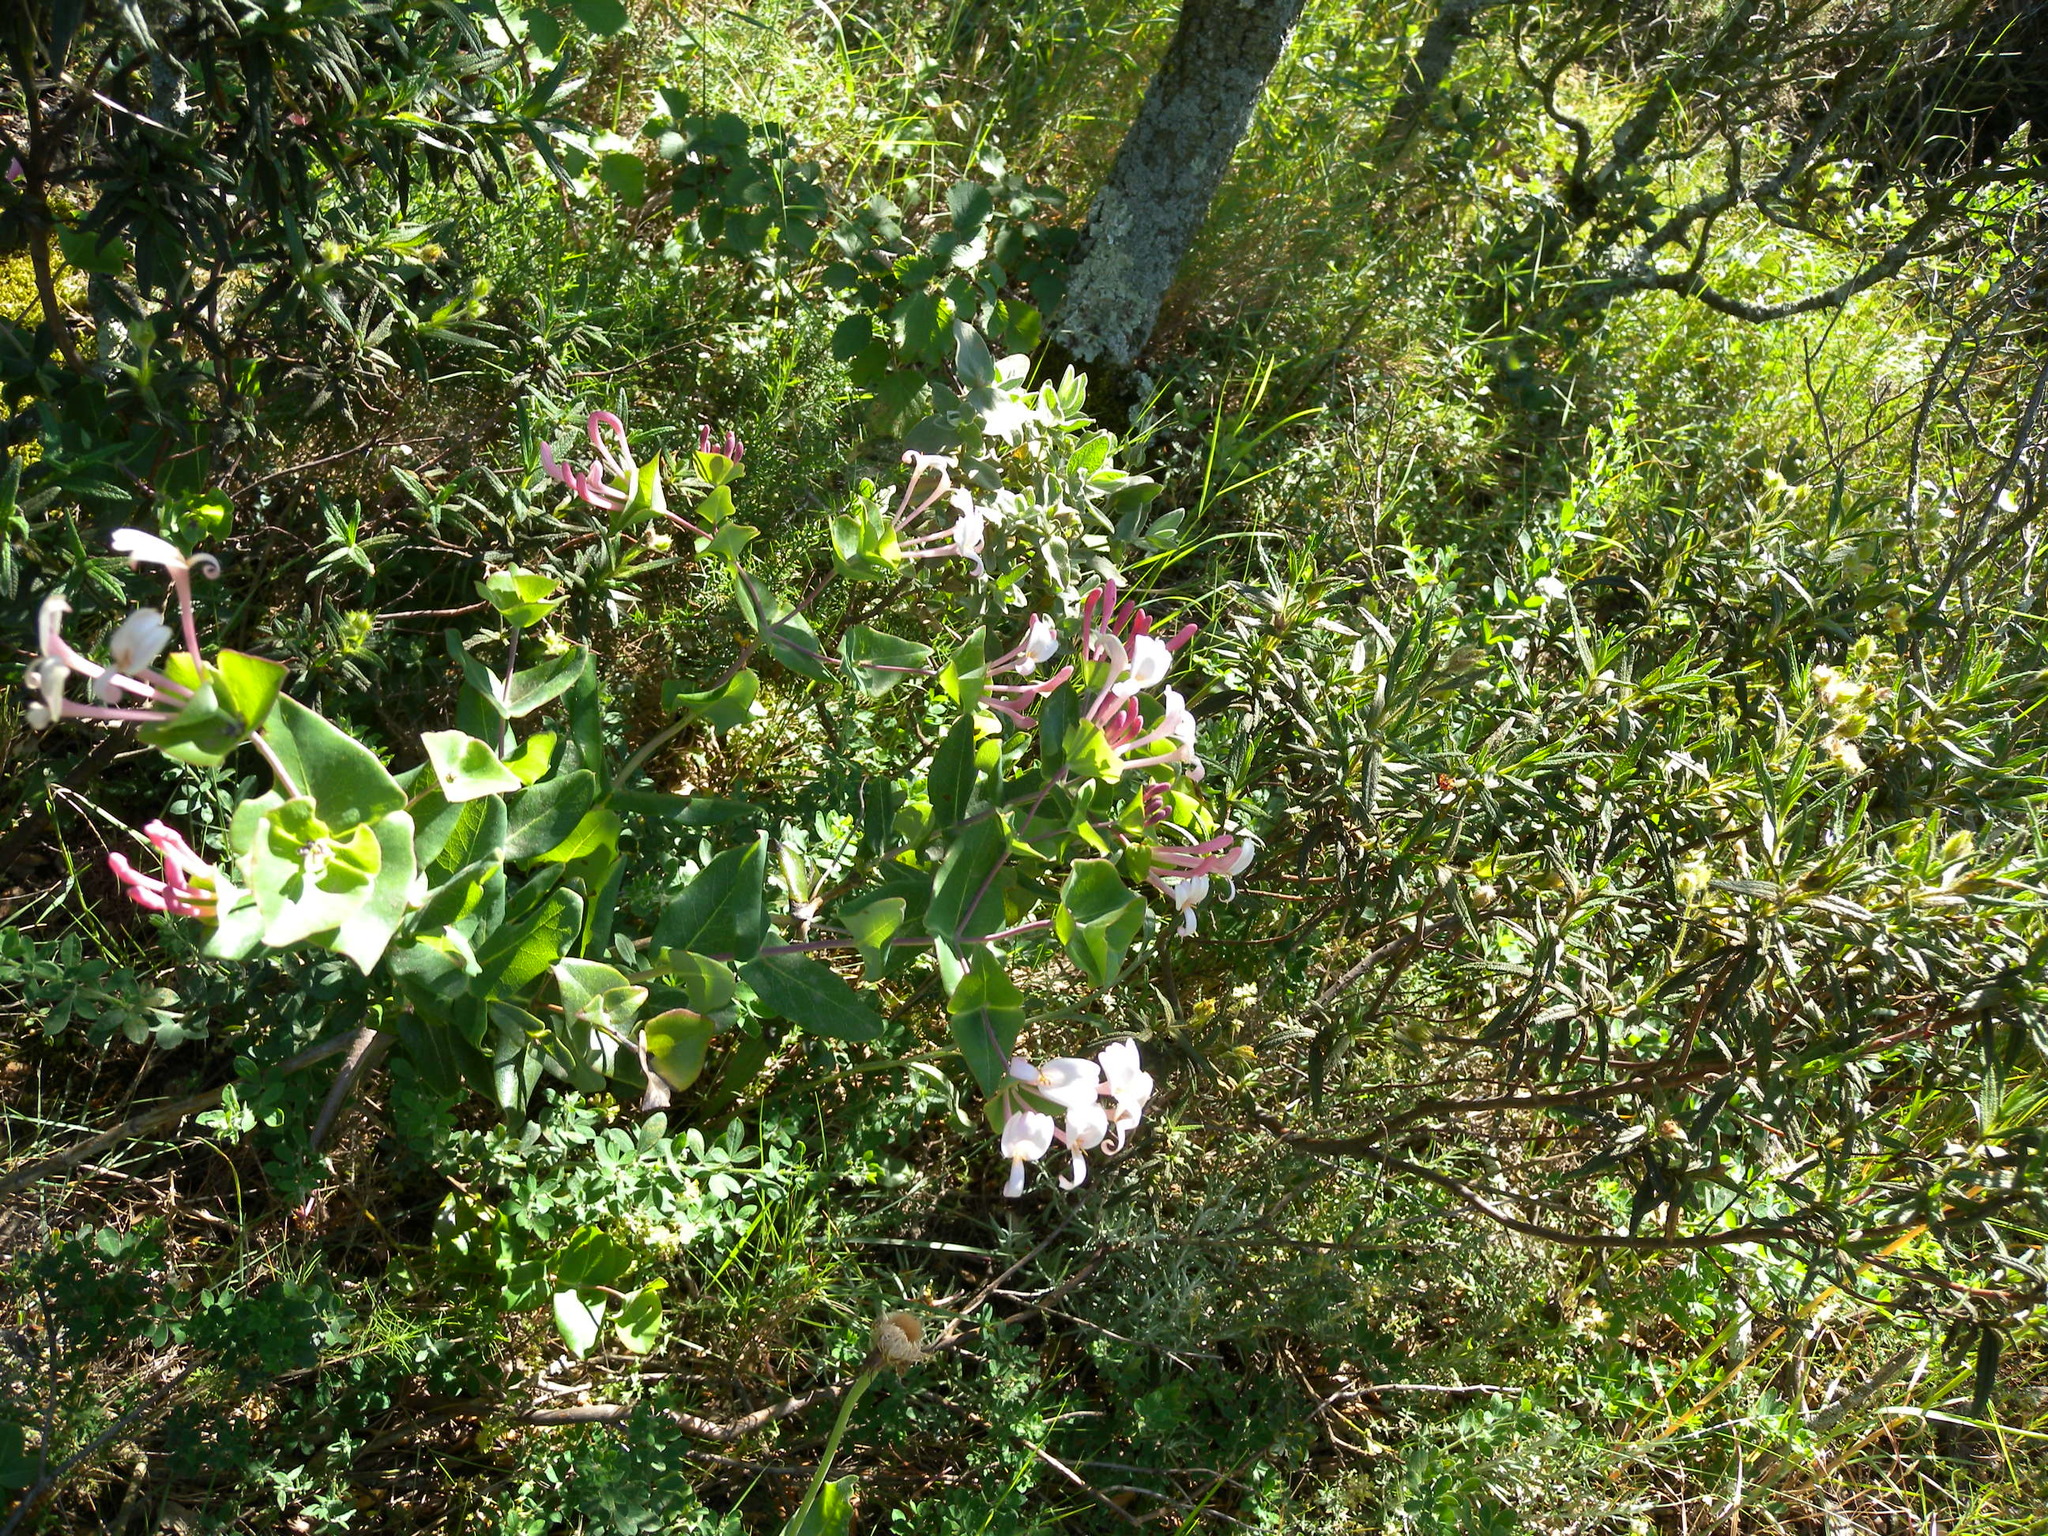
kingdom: Plantae
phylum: Tracheophyta
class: Magnoliopsida
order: Dipsacales
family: Caprifoliaceae
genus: Lonicera
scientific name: Lonicera implexa
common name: Minorca honeysuckle
